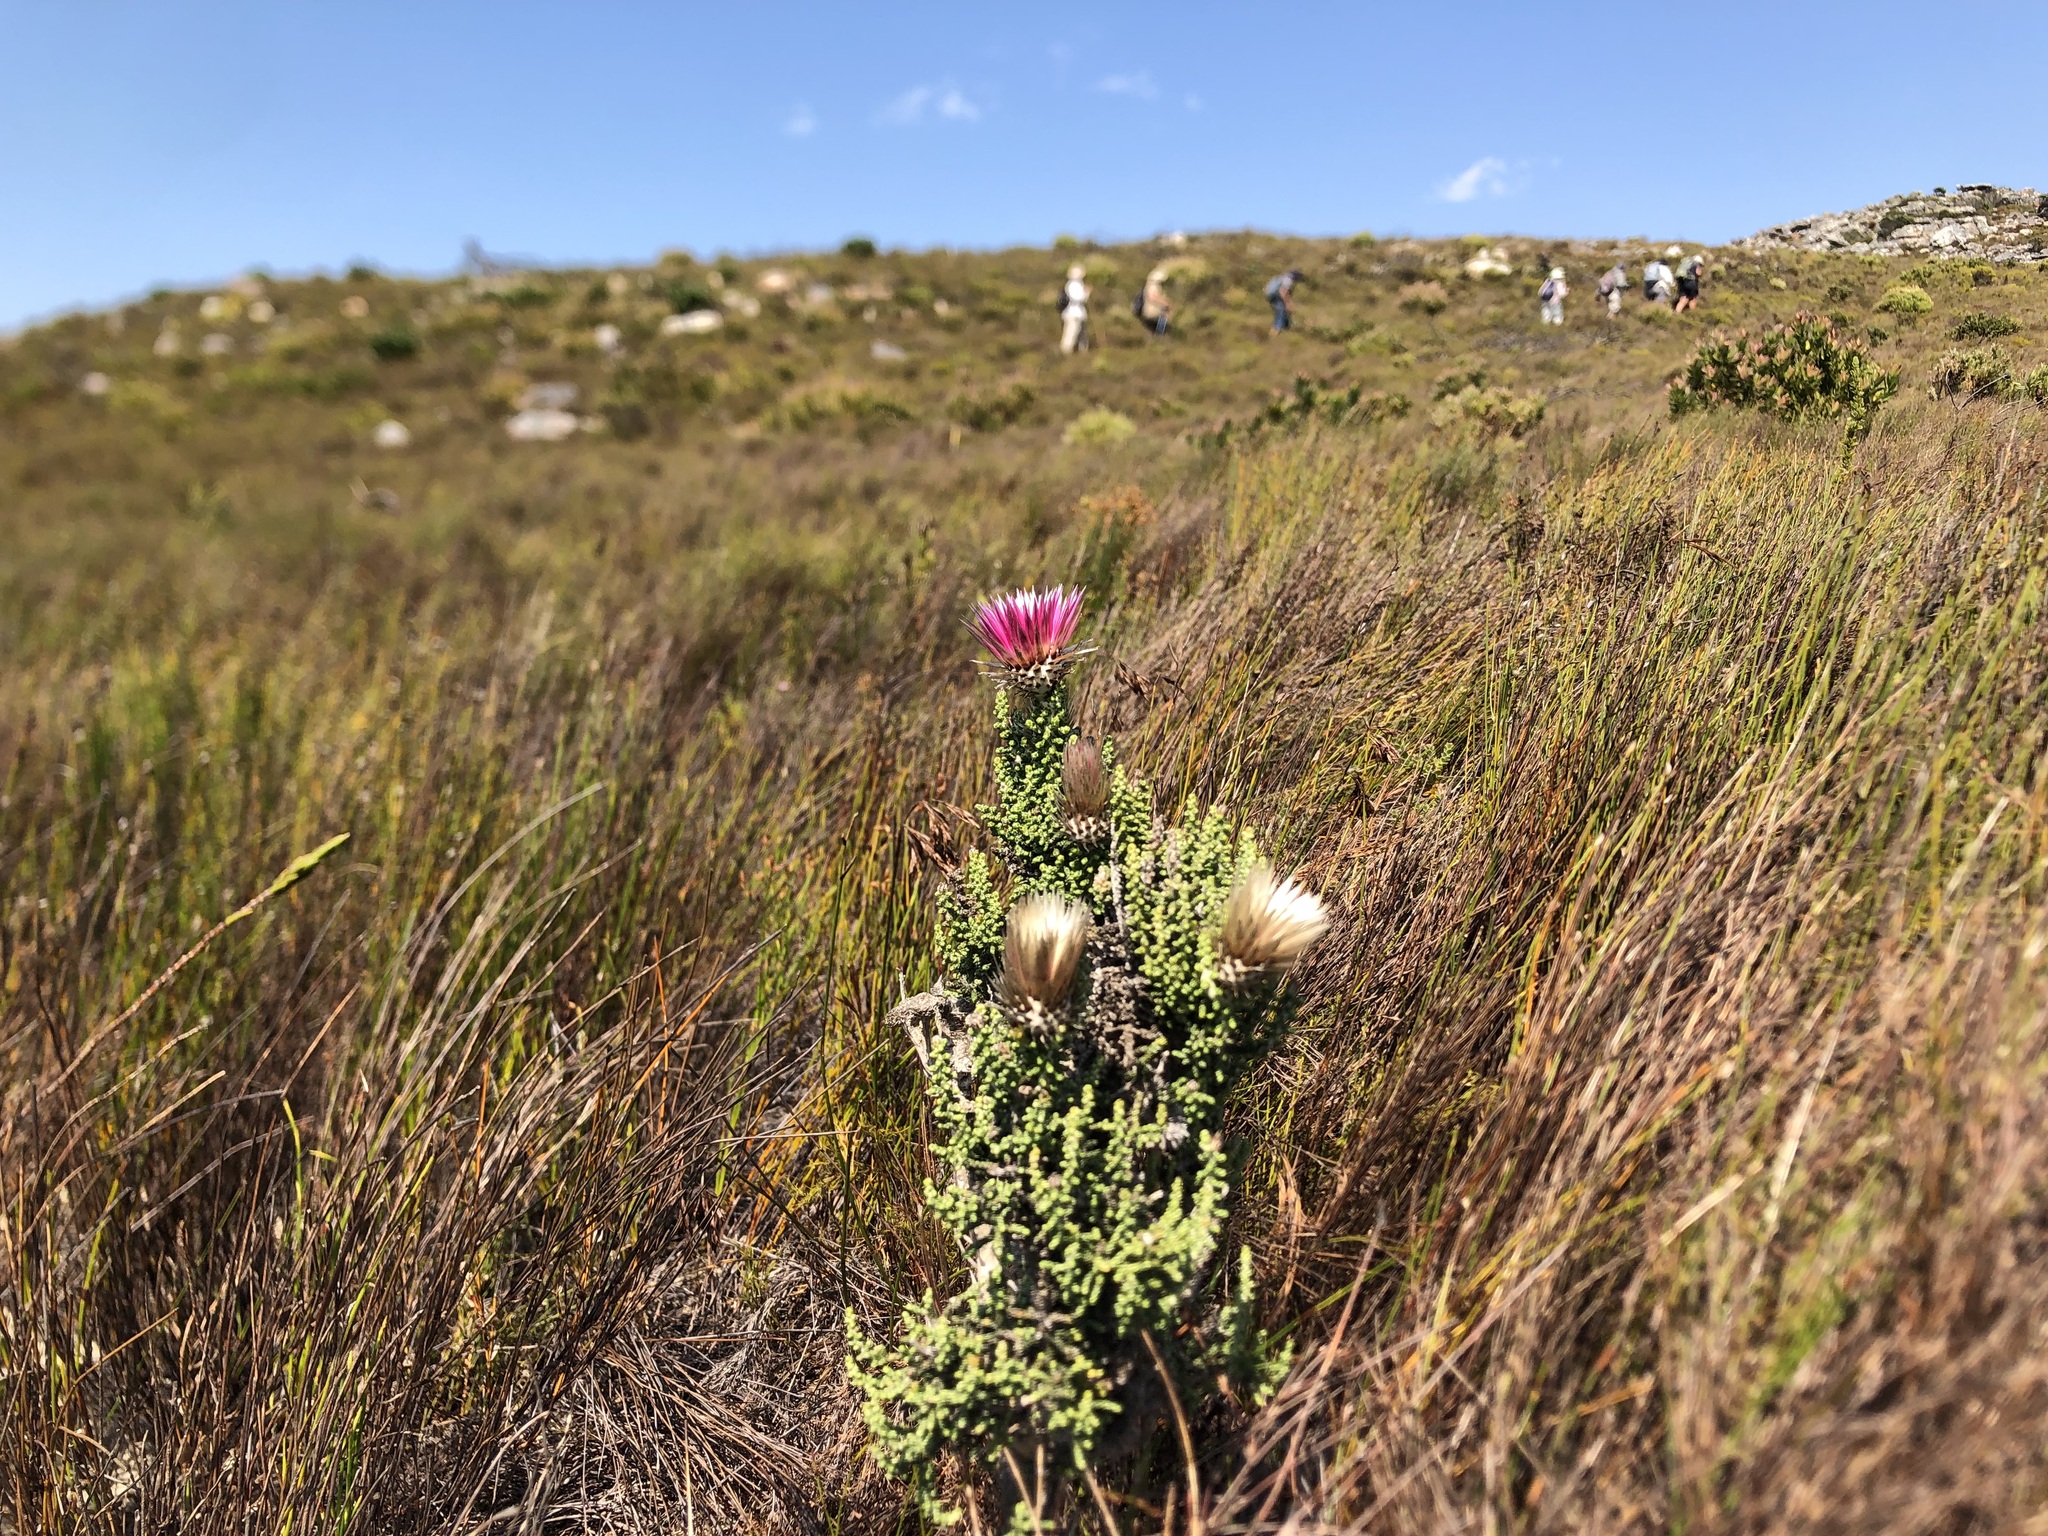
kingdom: Plantae
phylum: Tracheophyta
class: Magnoliopsida
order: Asterales
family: Asteraceae
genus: Phaenocoma
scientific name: Phaenocoma prolifera
